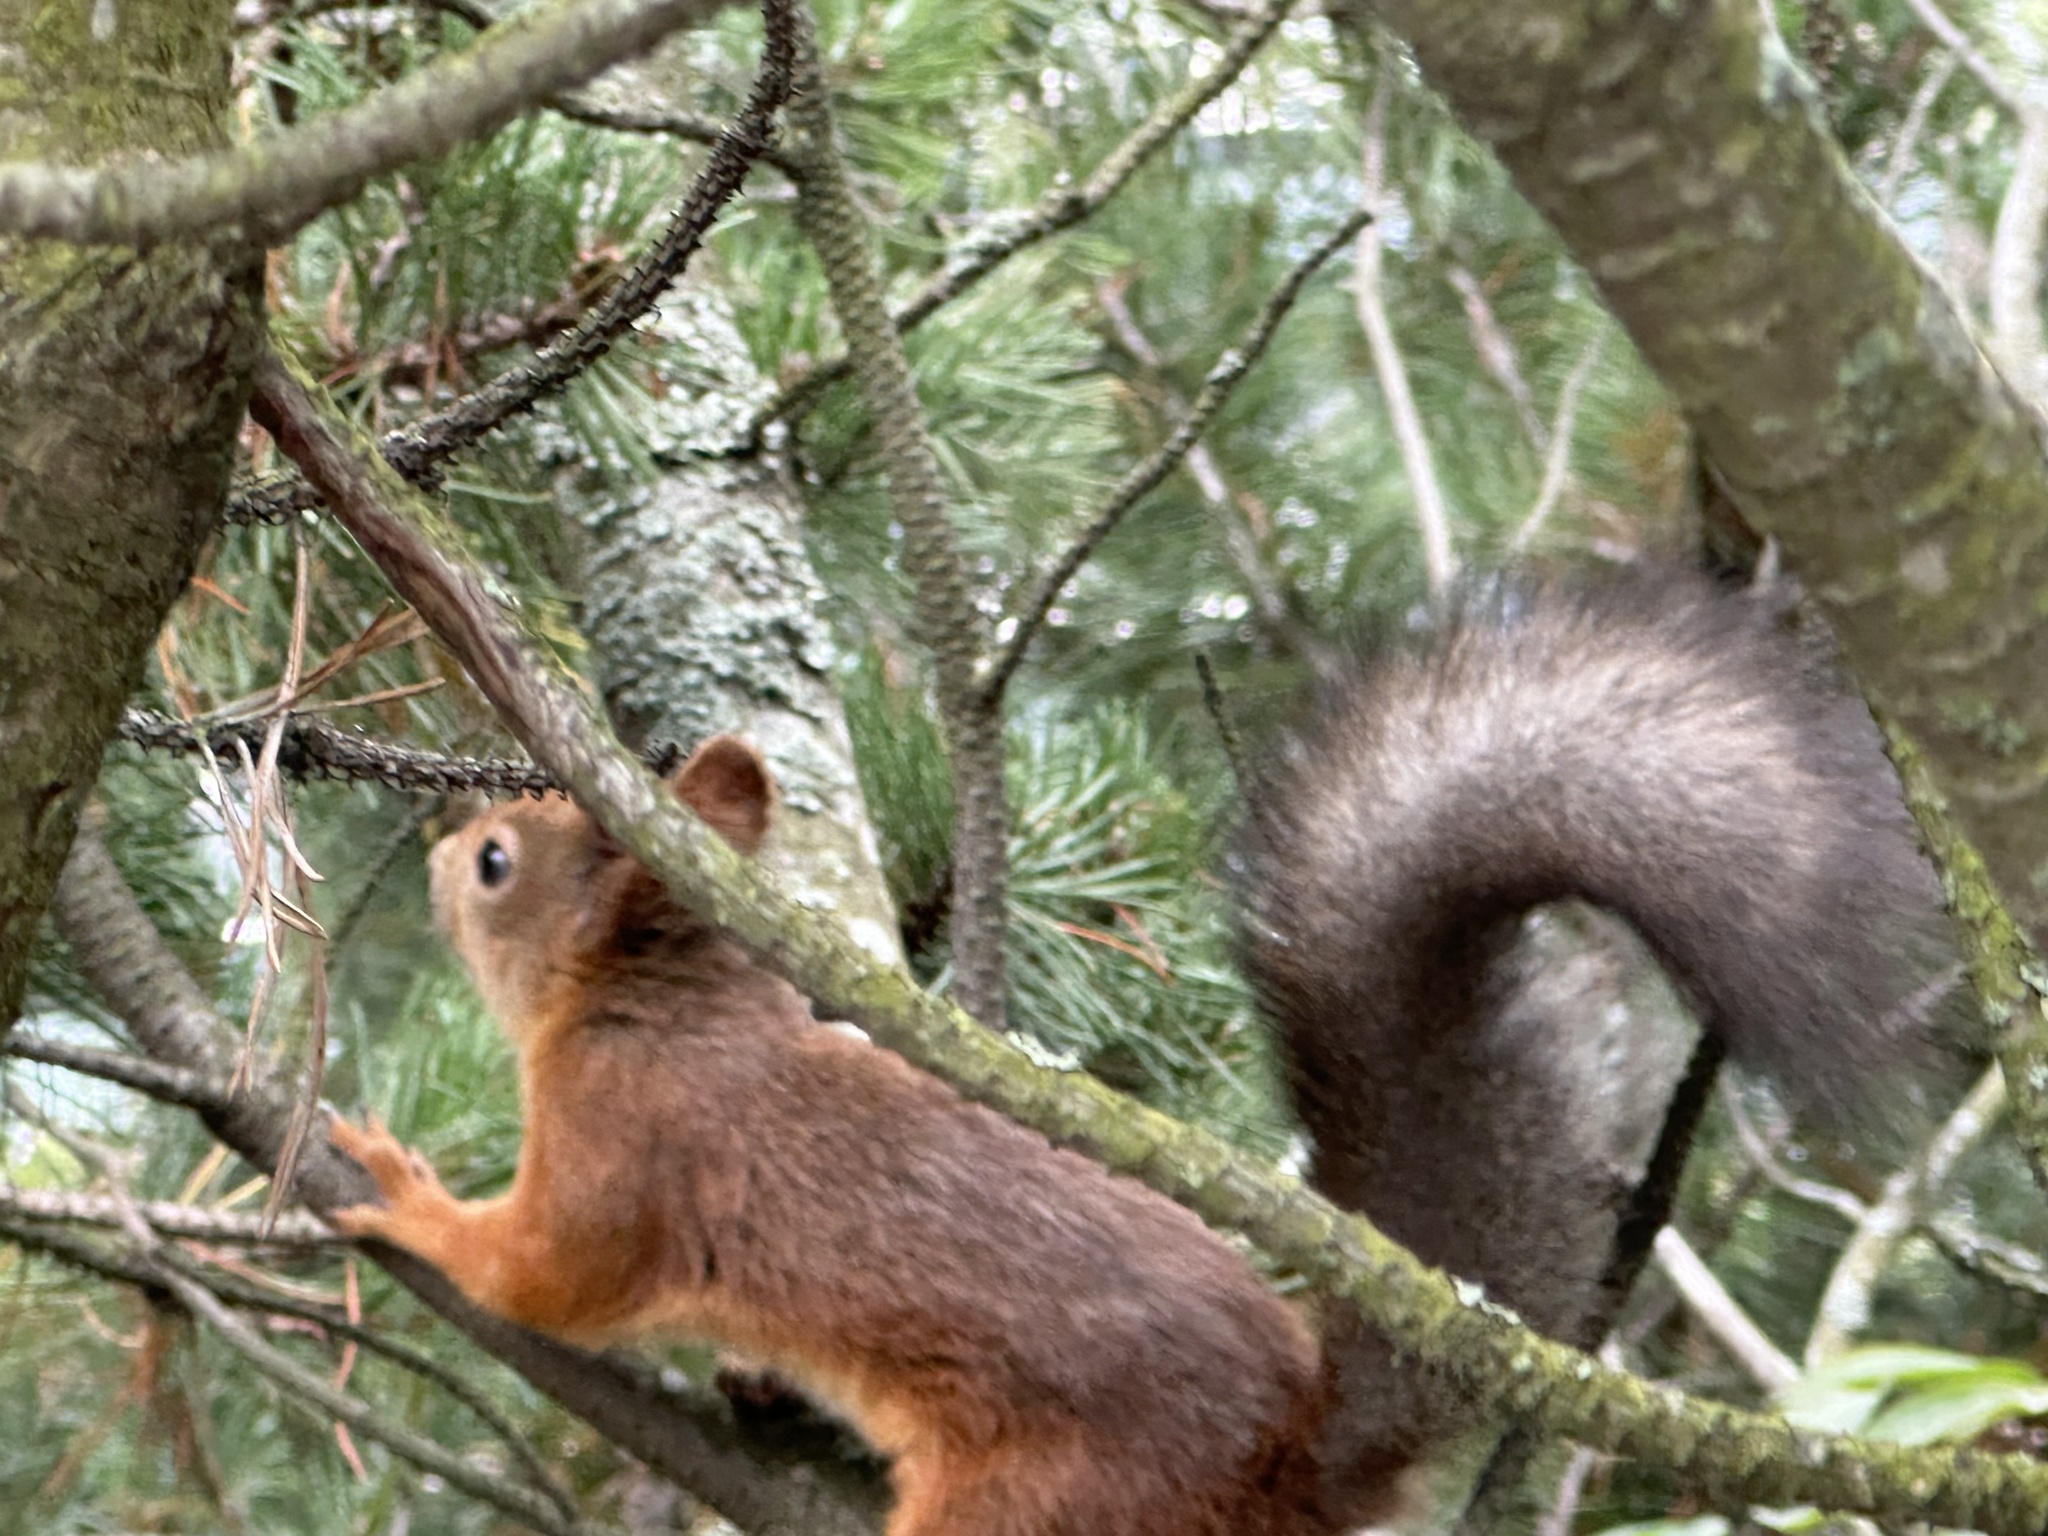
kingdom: Animalia
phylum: Chordata
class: Mammalia
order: Rodentia
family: Sciuridae
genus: Sciurus
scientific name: Sciurus vulgaris
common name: Eurasian red squirrel
